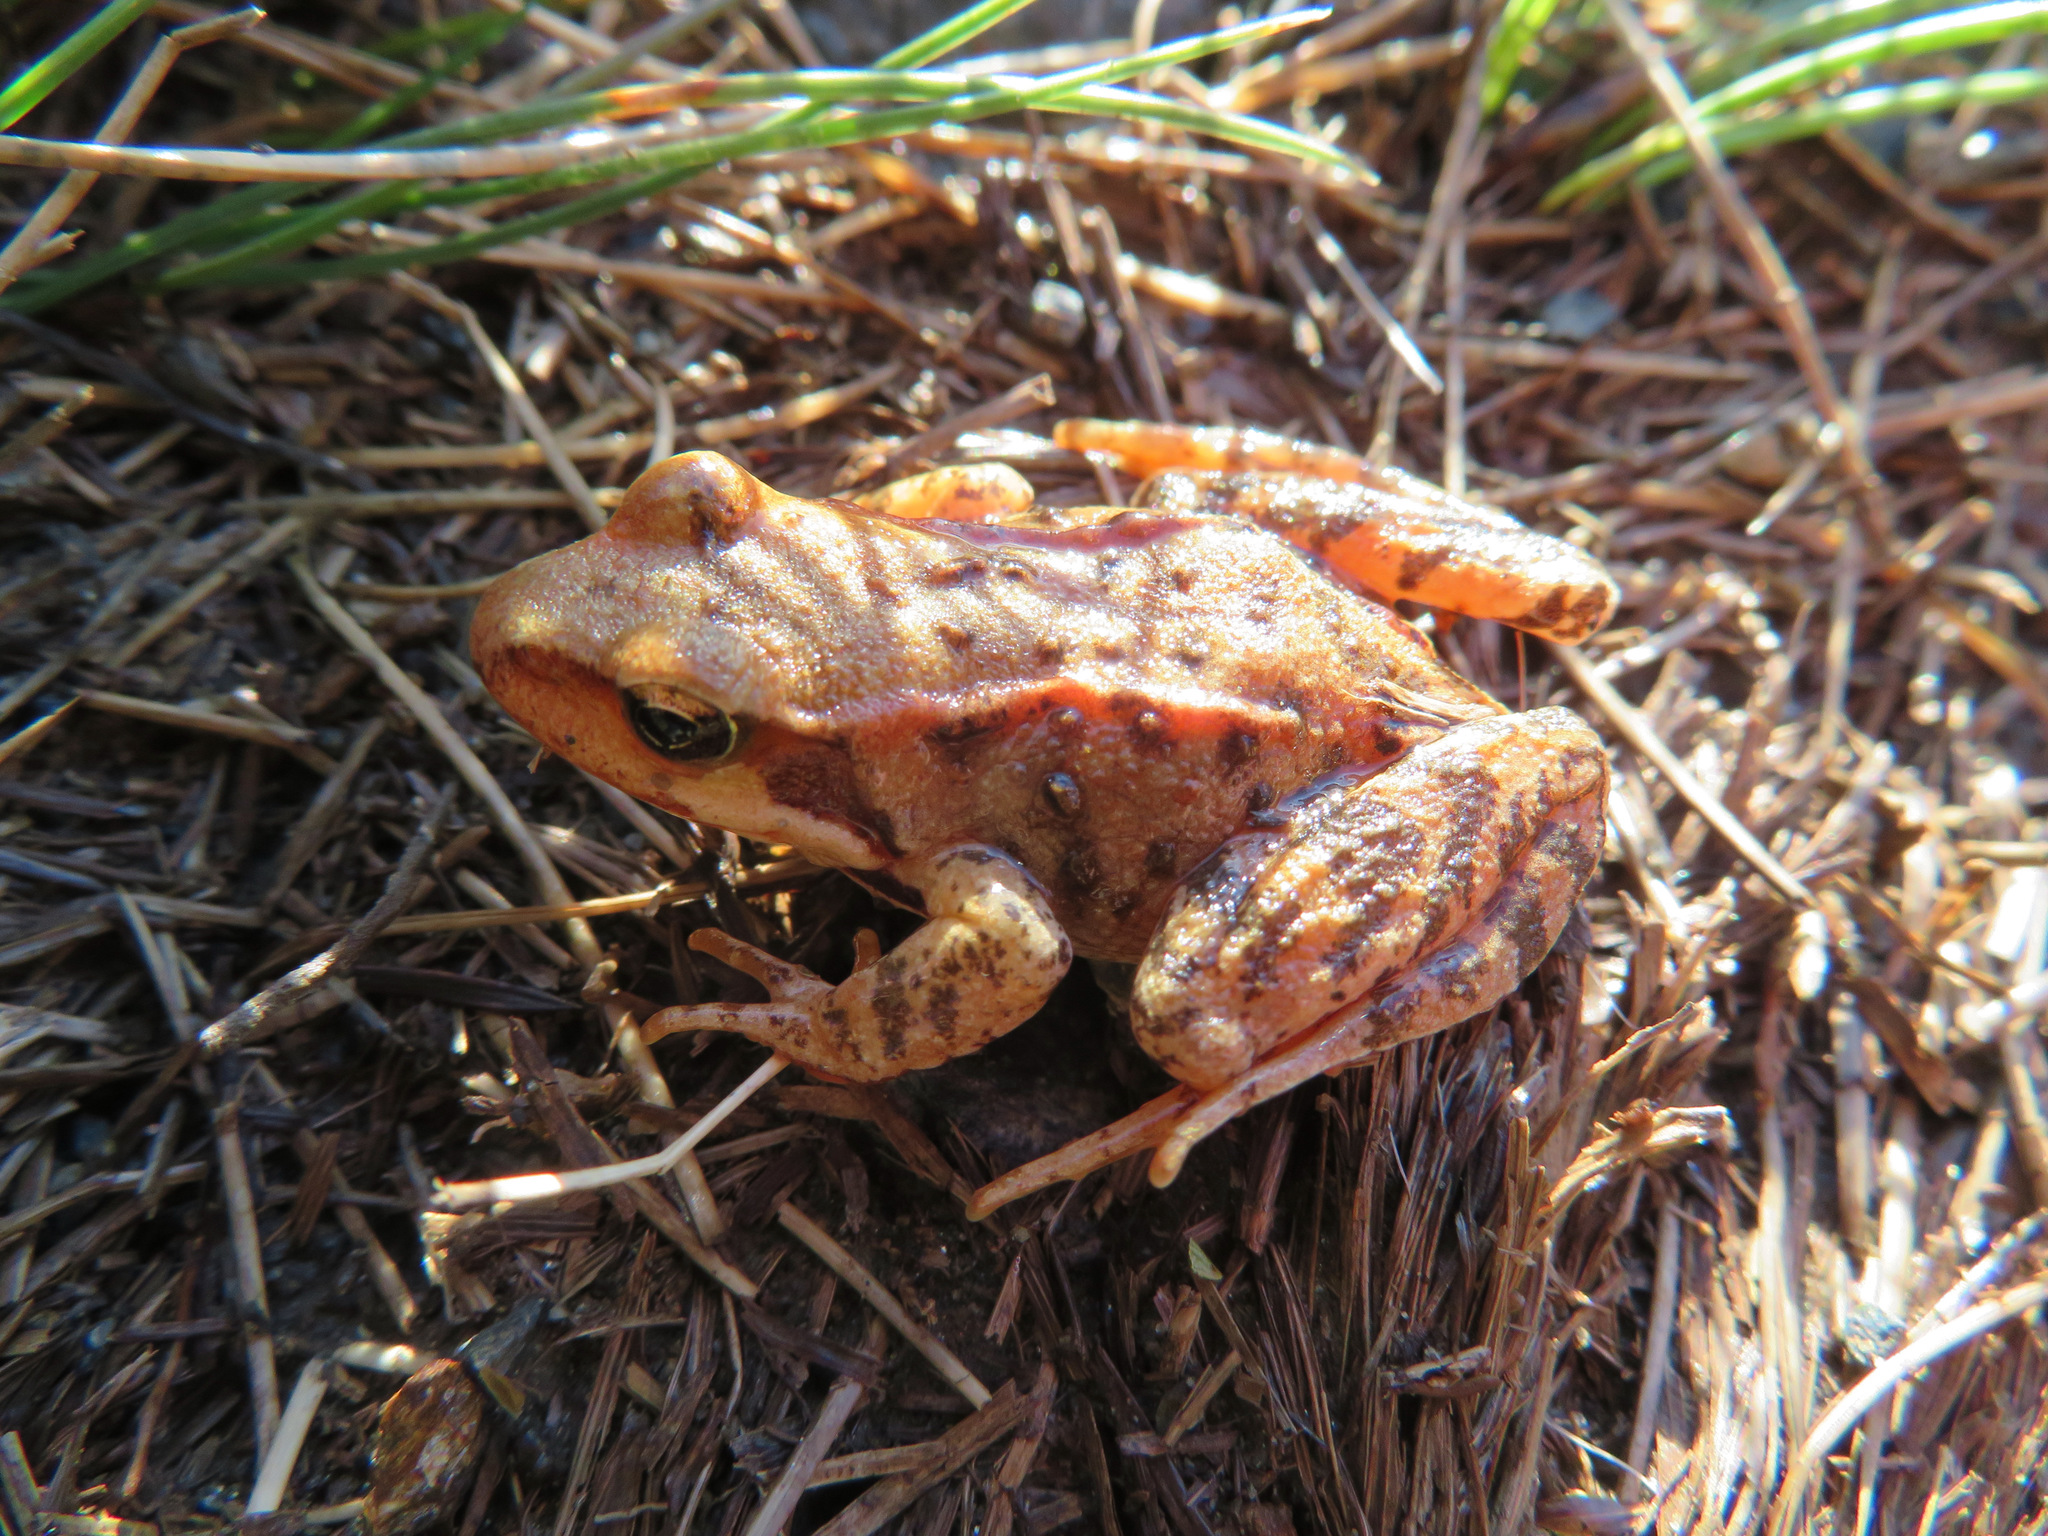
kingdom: Animalia
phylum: Chordata
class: Amphibia
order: Anura
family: Ranidae
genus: Rana
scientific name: Rana temporaria
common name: Common frog
